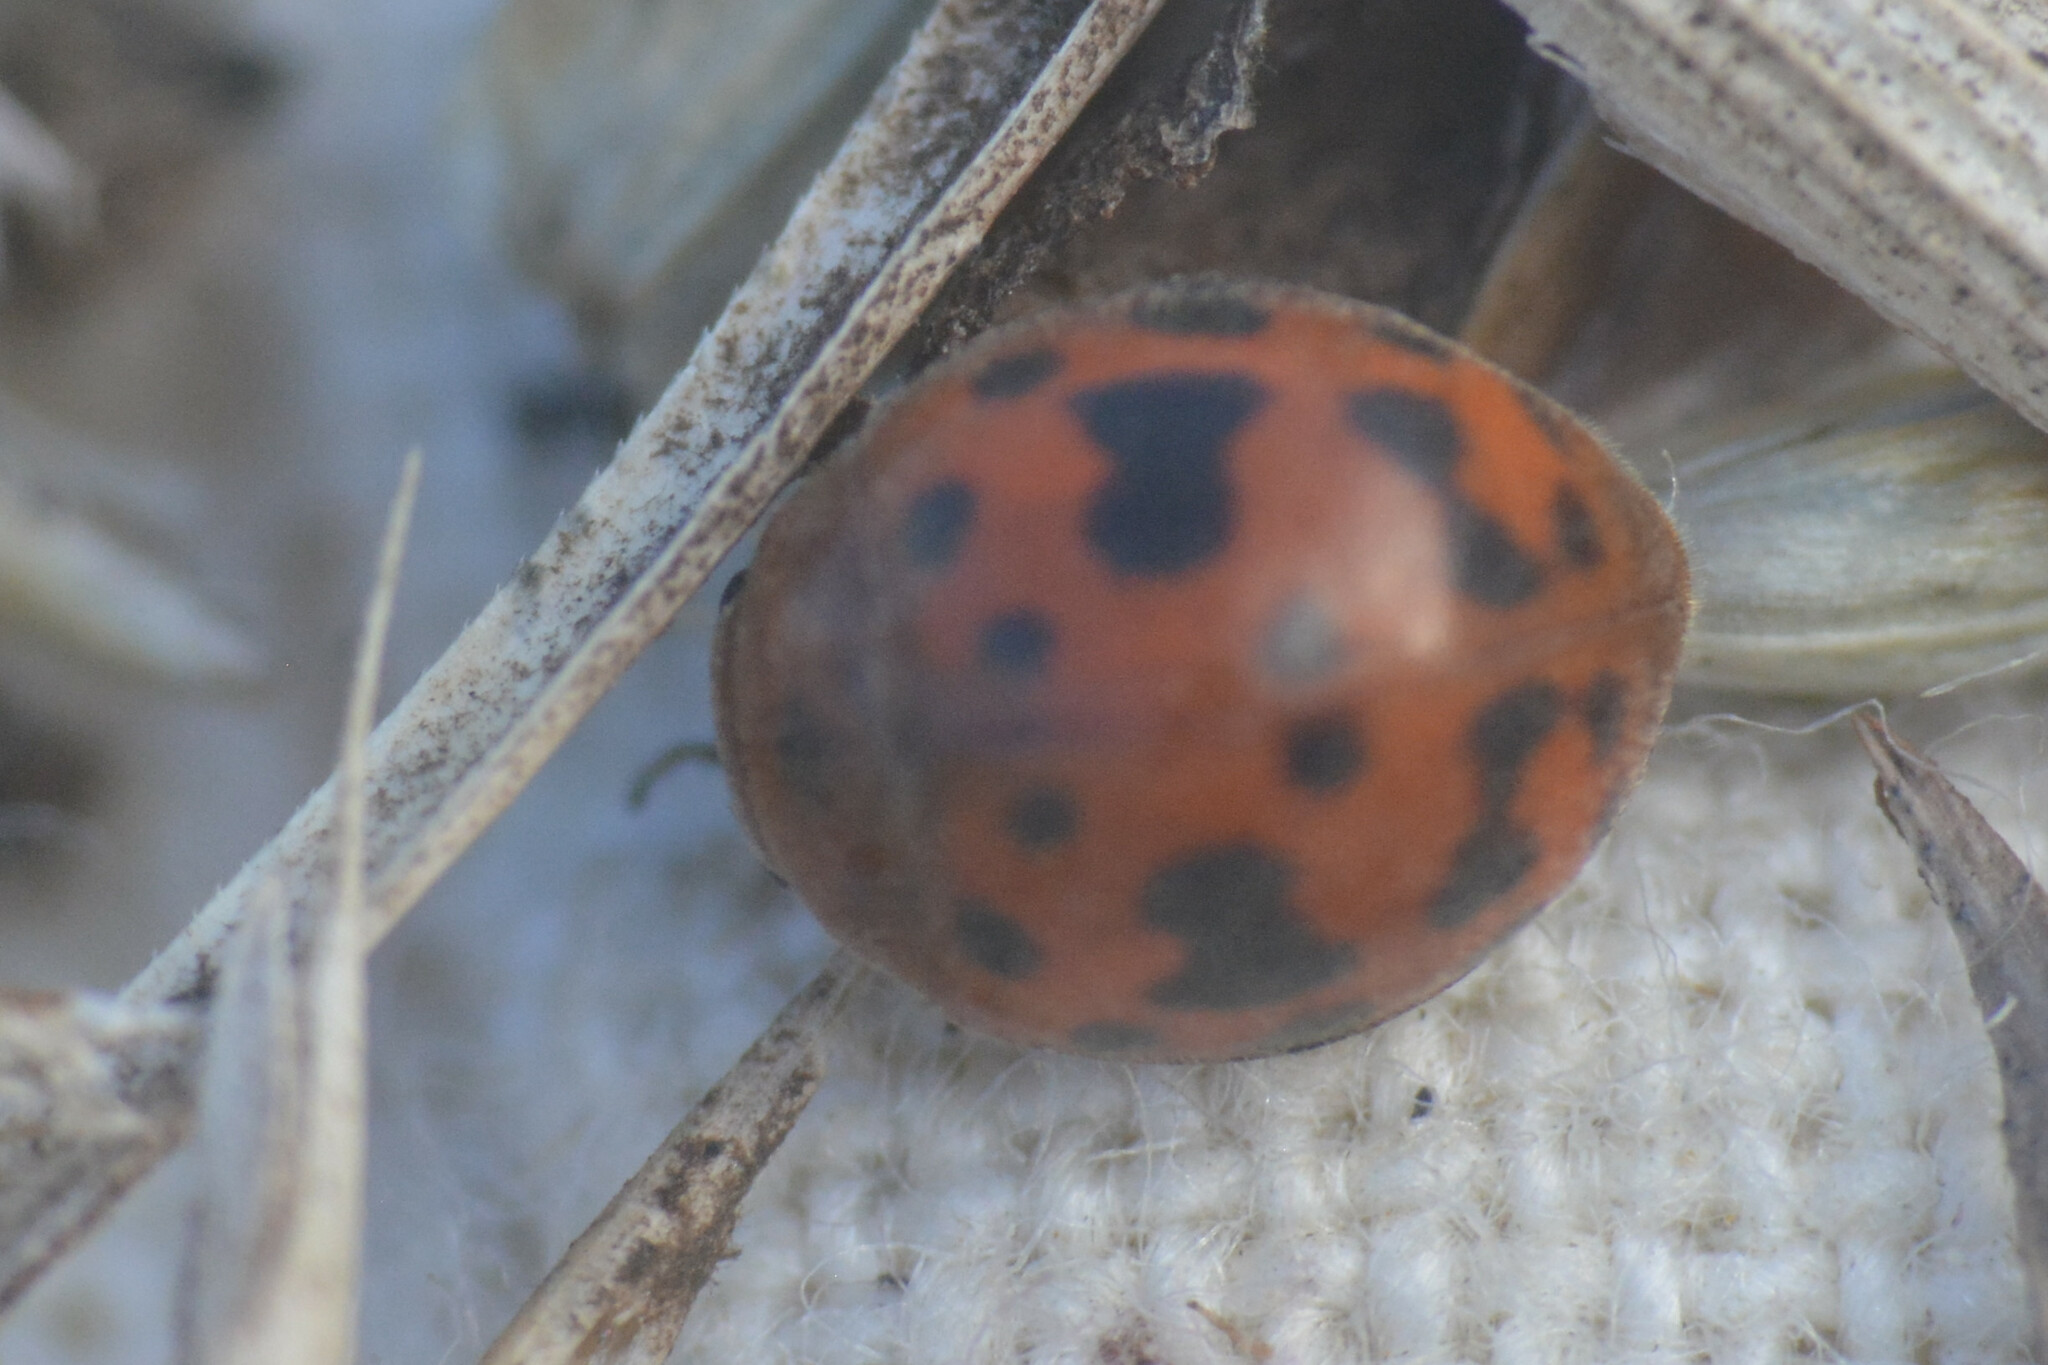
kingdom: Animalia
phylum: Arthropoda
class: Insecta
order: Coleoptera
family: Coccinellidae
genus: Subcoccinella
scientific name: Subcoccinella vigintiquatuorpunctata
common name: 24-spot ladybird
